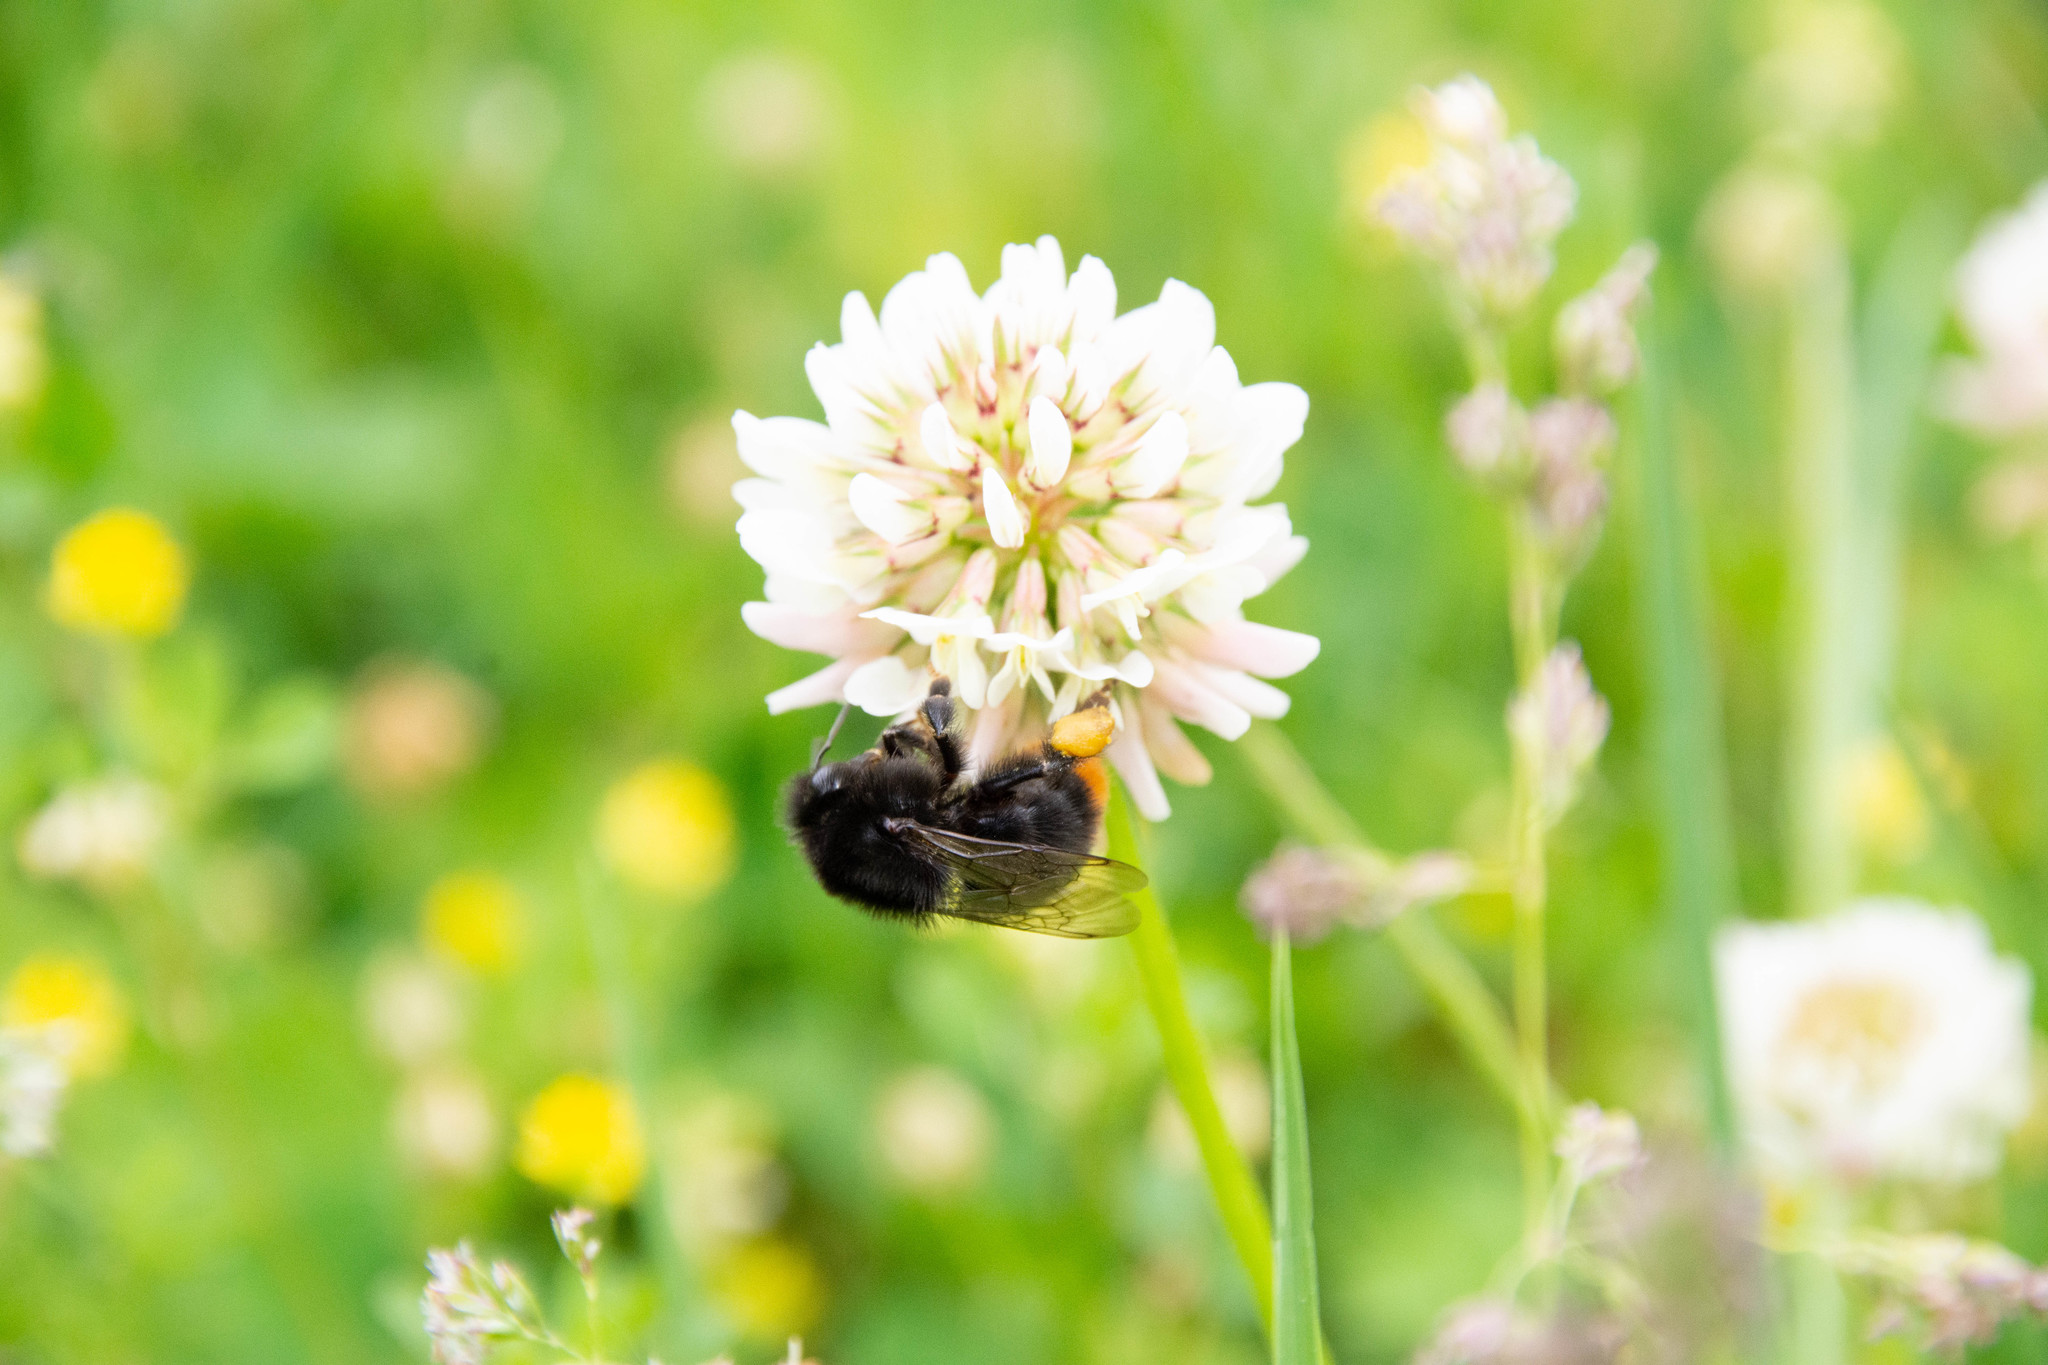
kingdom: Animalia
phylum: Arthropoda
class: Insecta
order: Hymenoptera
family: Apidae
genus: Bombus
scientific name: Bombus lapidarius
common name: Large red-tailed humble-bee
